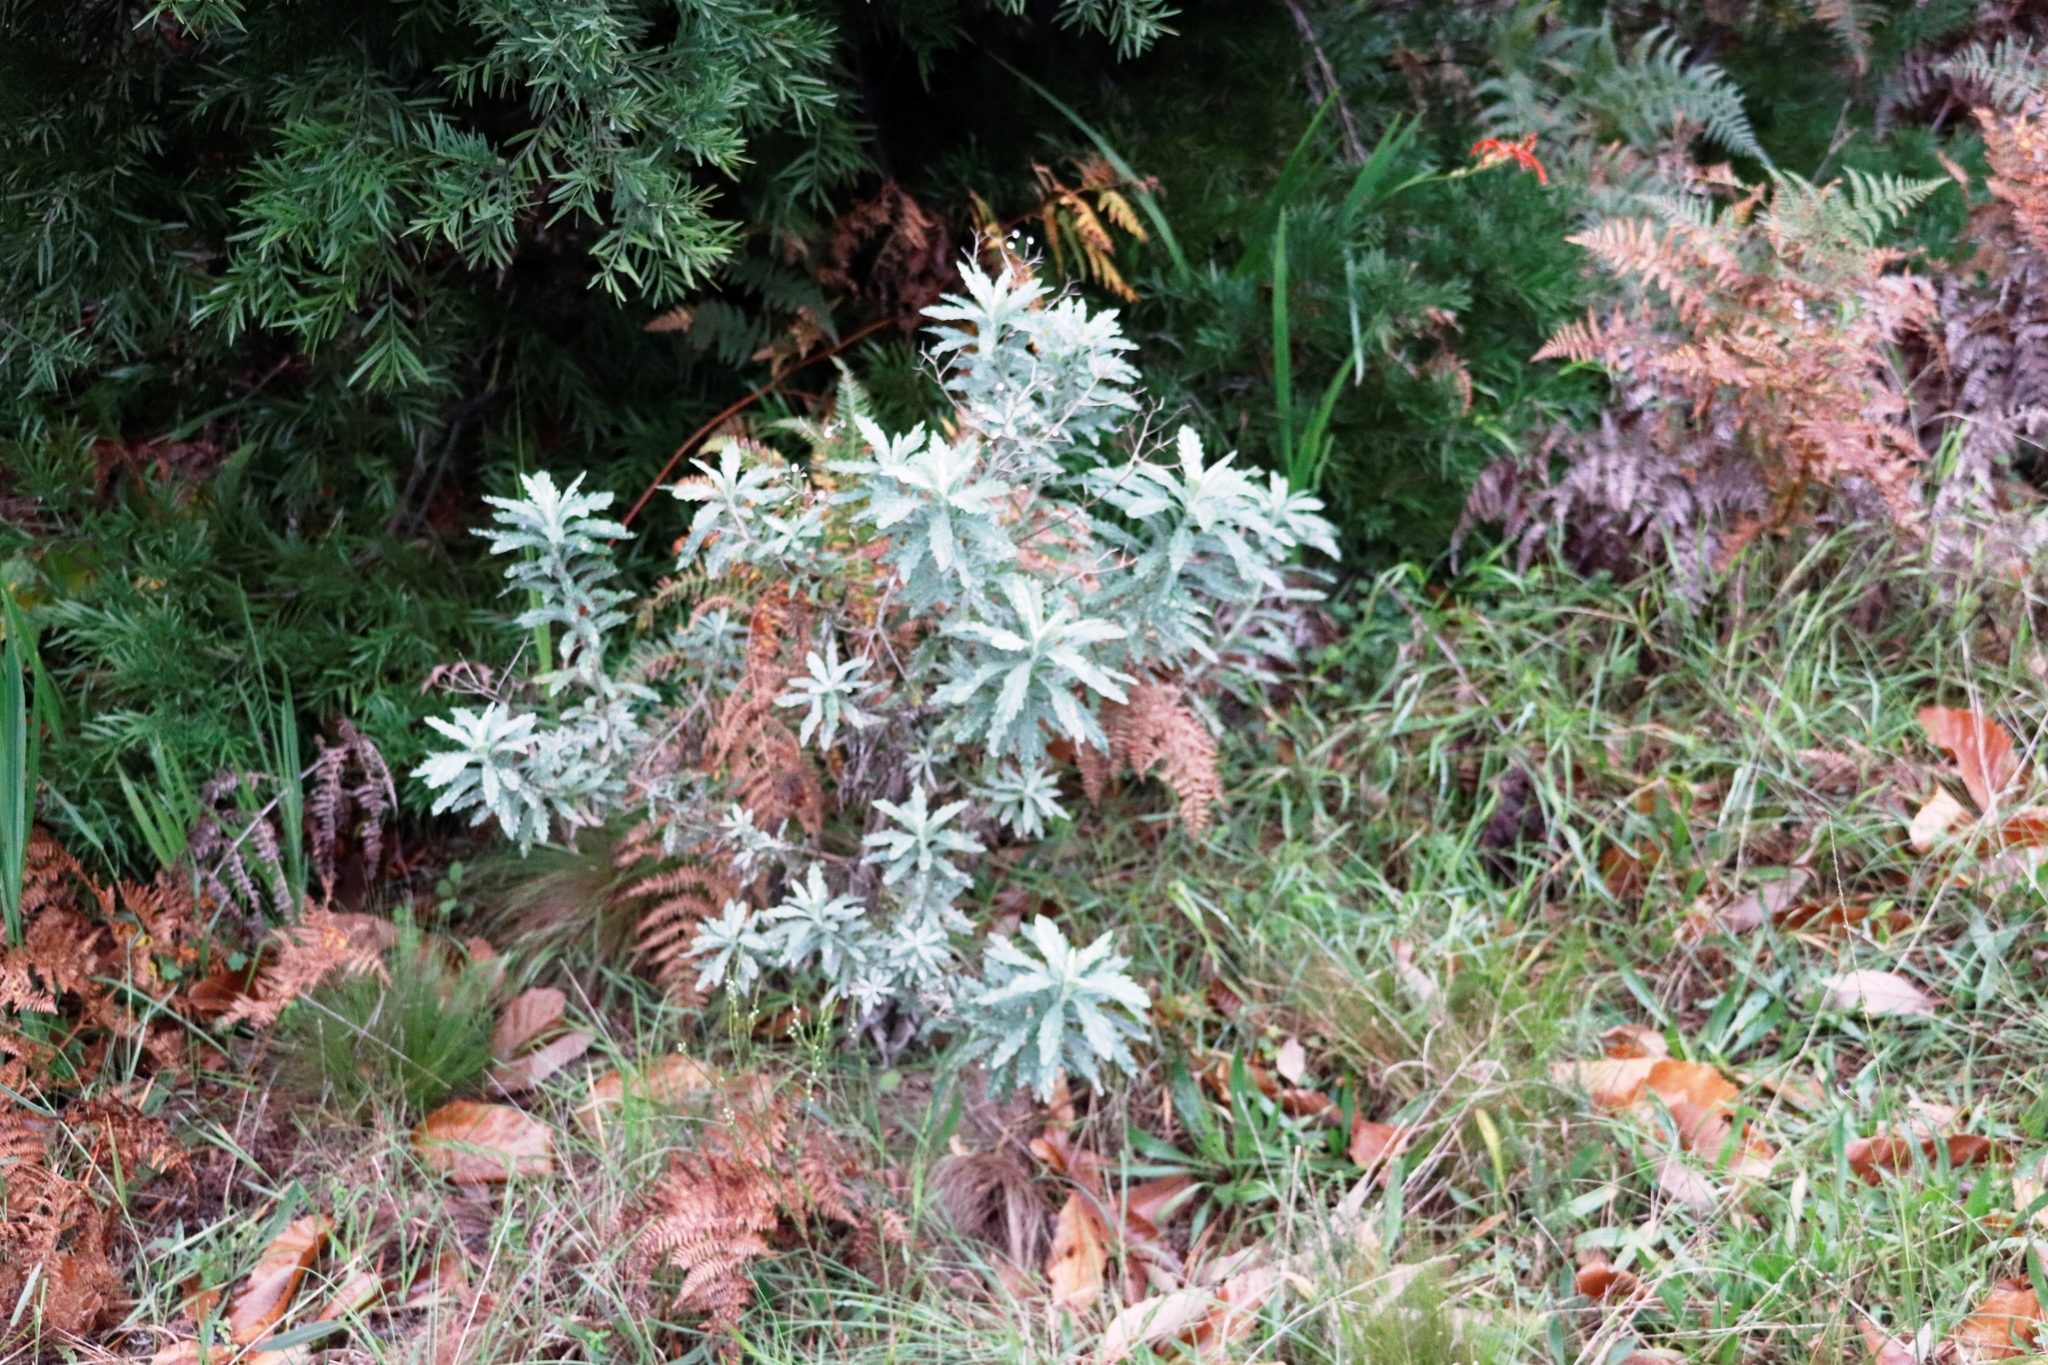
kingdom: Plantae
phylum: Tracheophyta
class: Magnoliopsida
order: Asterales
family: Asteraceae
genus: Senecio
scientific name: Senecio pterophorus
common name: Shoddy ragwort
